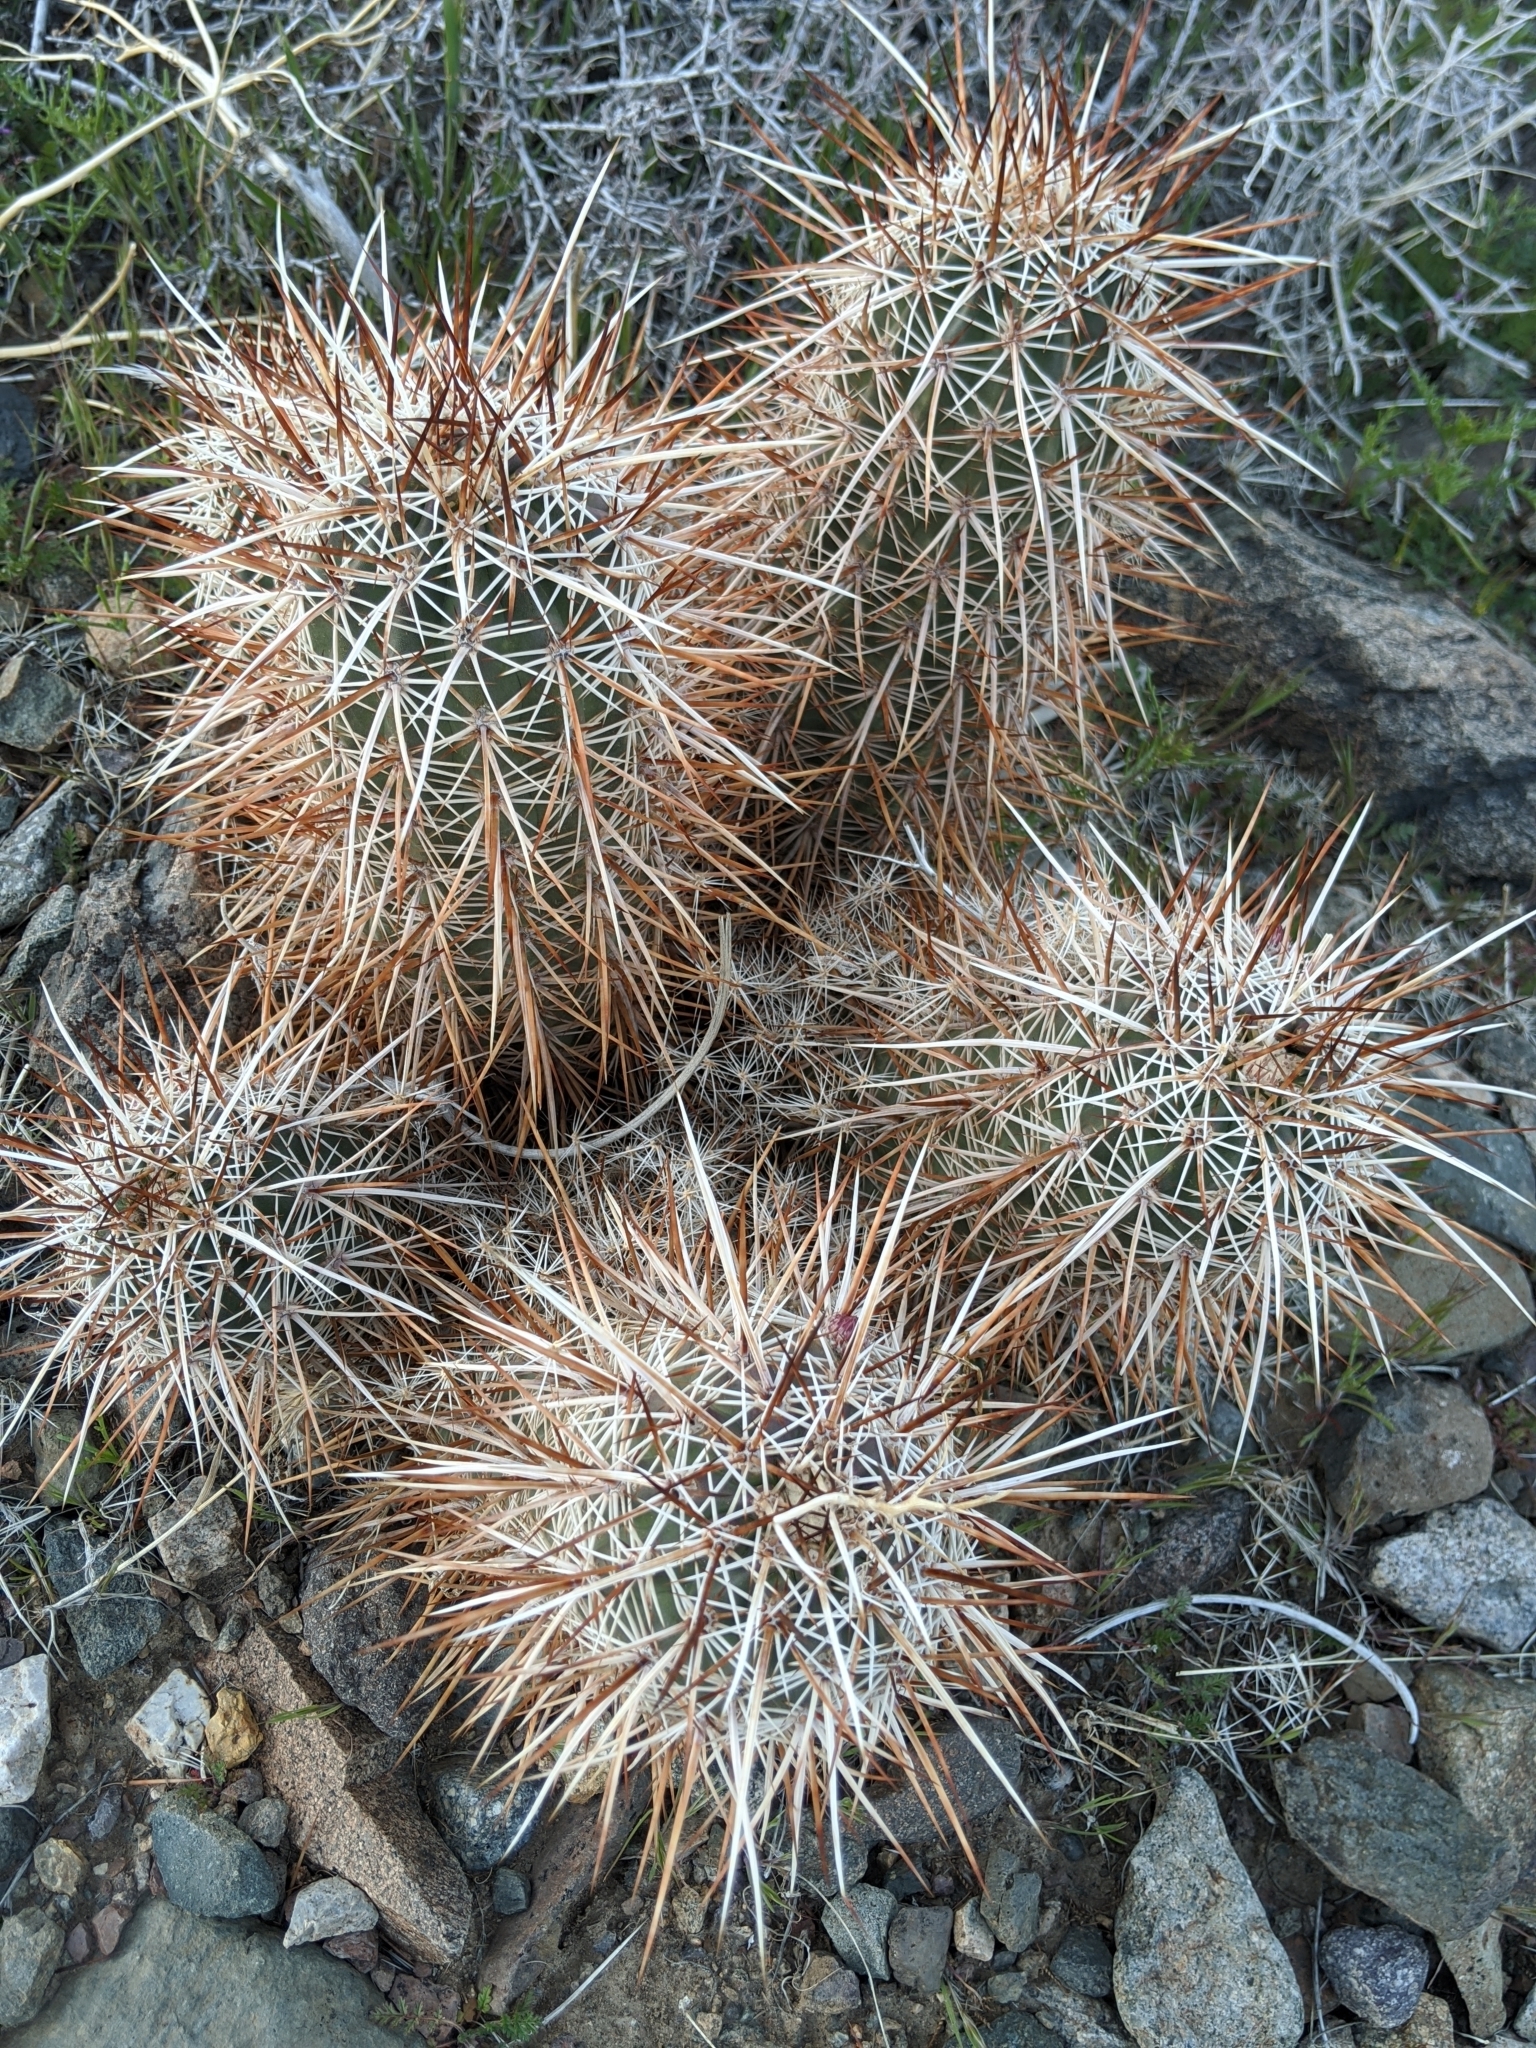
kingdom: Plantae
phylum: Tracheophyta
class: Magnoliopsida
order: Caryophyllales
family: Cactaceae
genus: Echinocereus
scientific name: Echinocereus engelmannii
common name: Engelmann's hedgehog cactus
